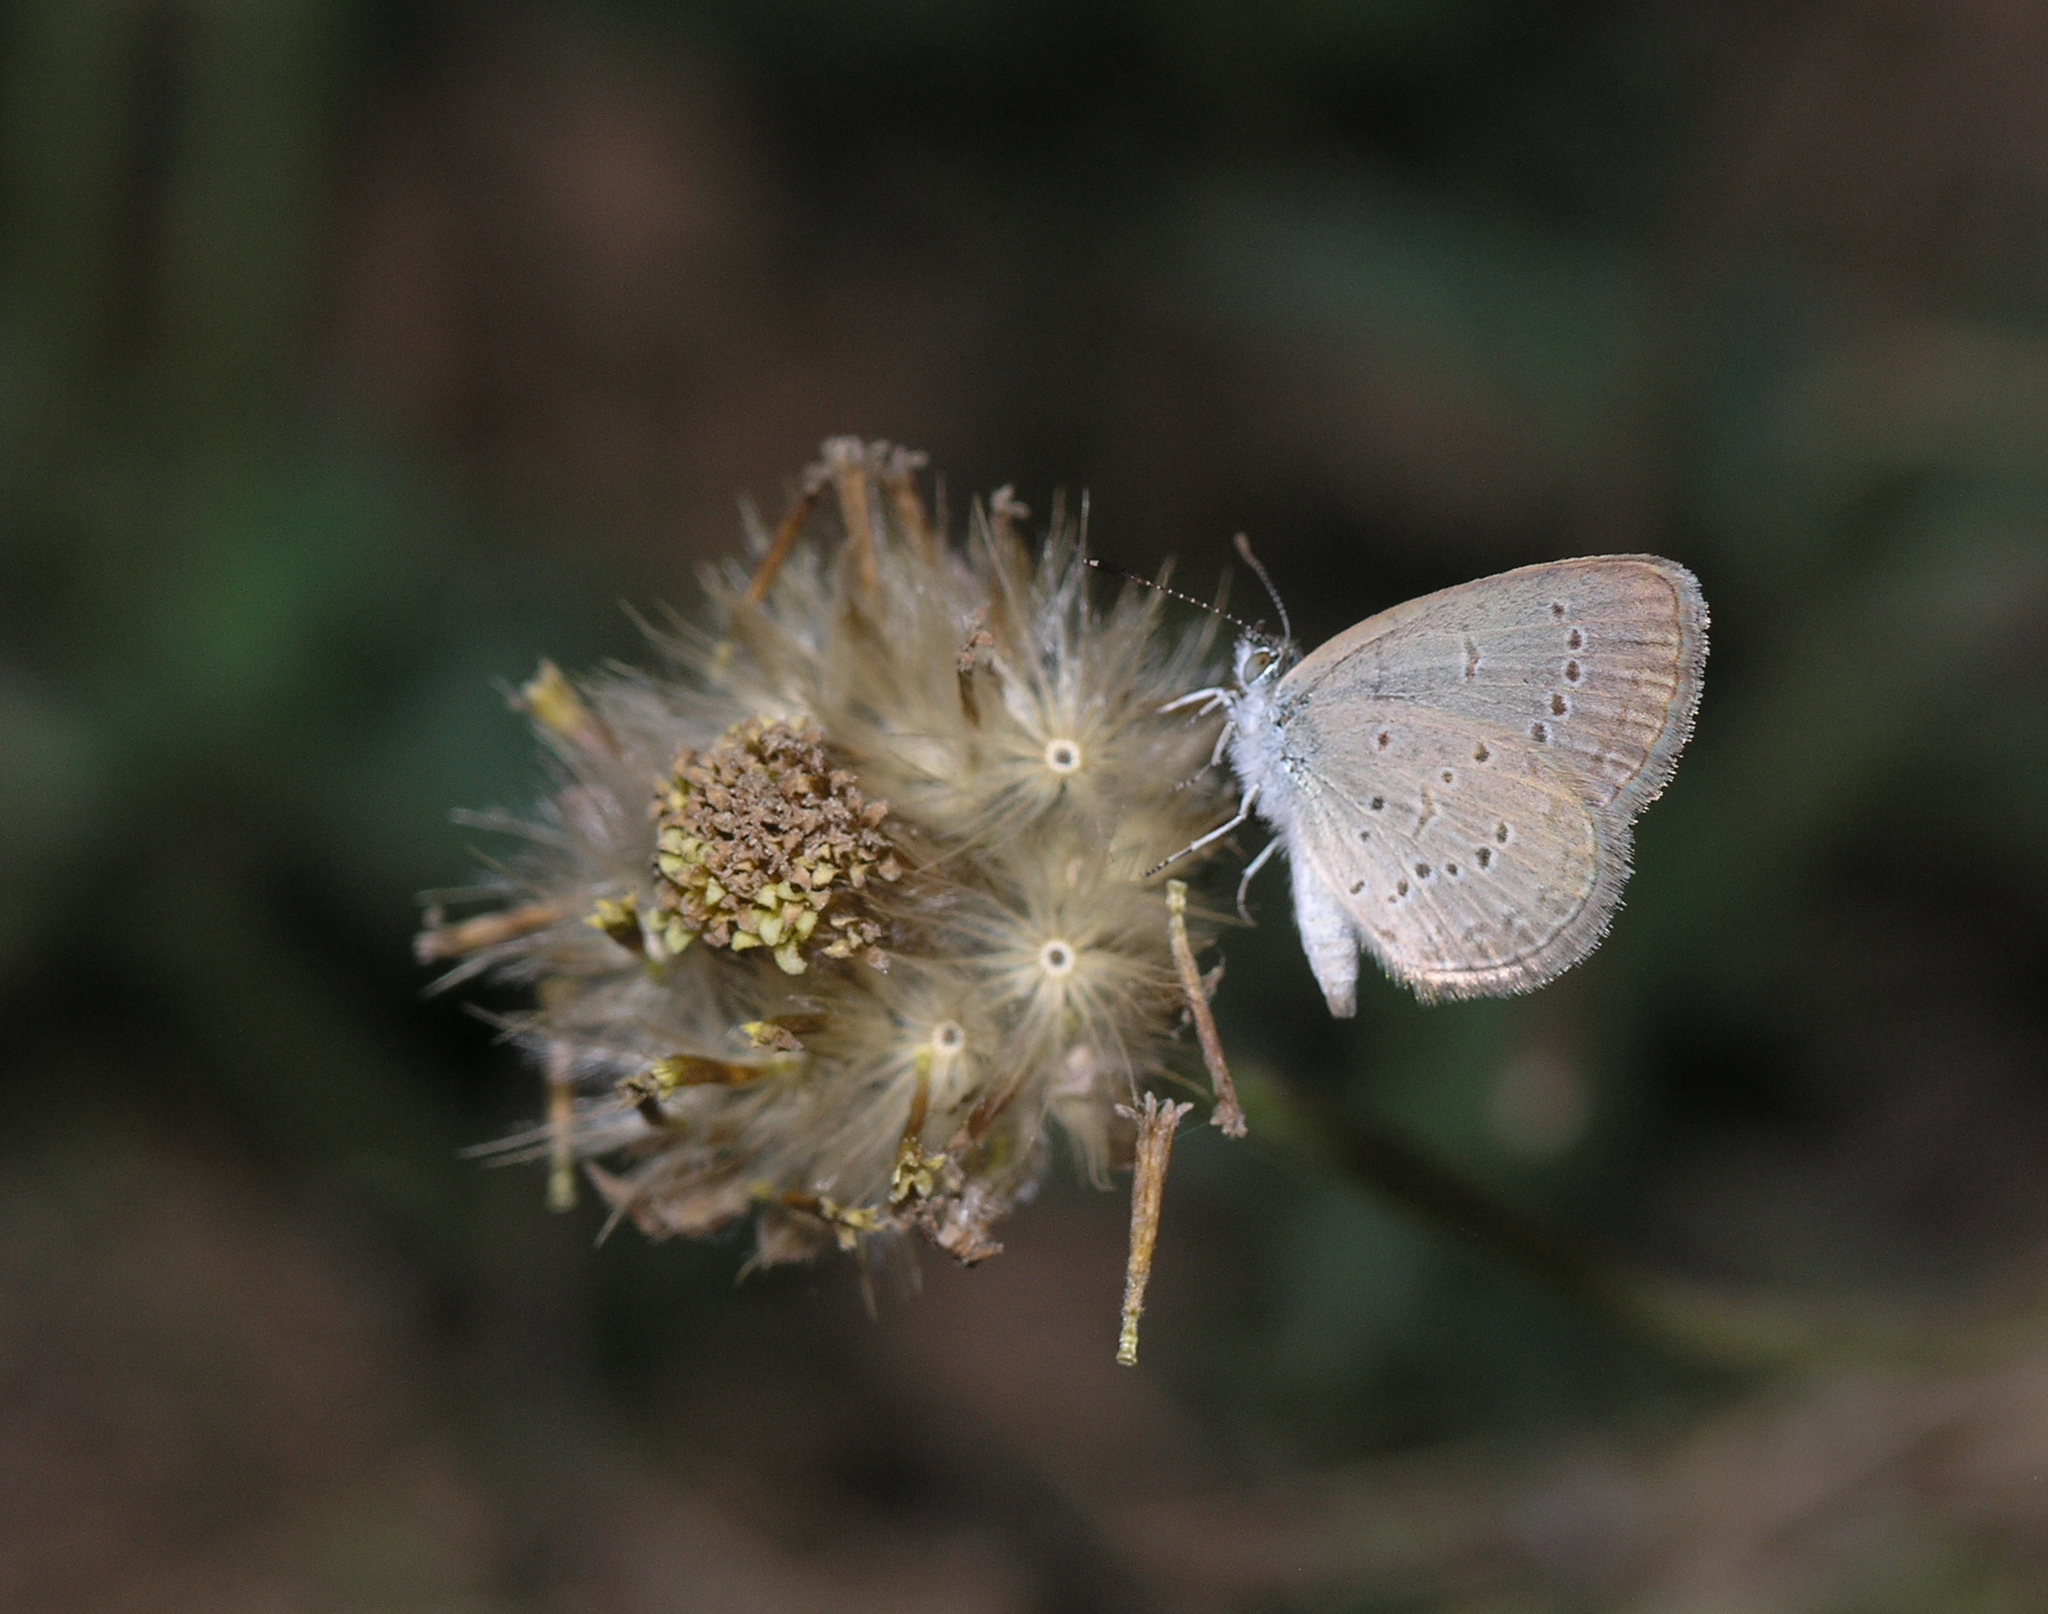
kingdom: Animalia
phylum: Arthropoda
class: Insecta
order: Lepidoptera
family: Lycaenidae
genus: Zizina
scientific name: Zizina otis
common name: Lesser grass blue
